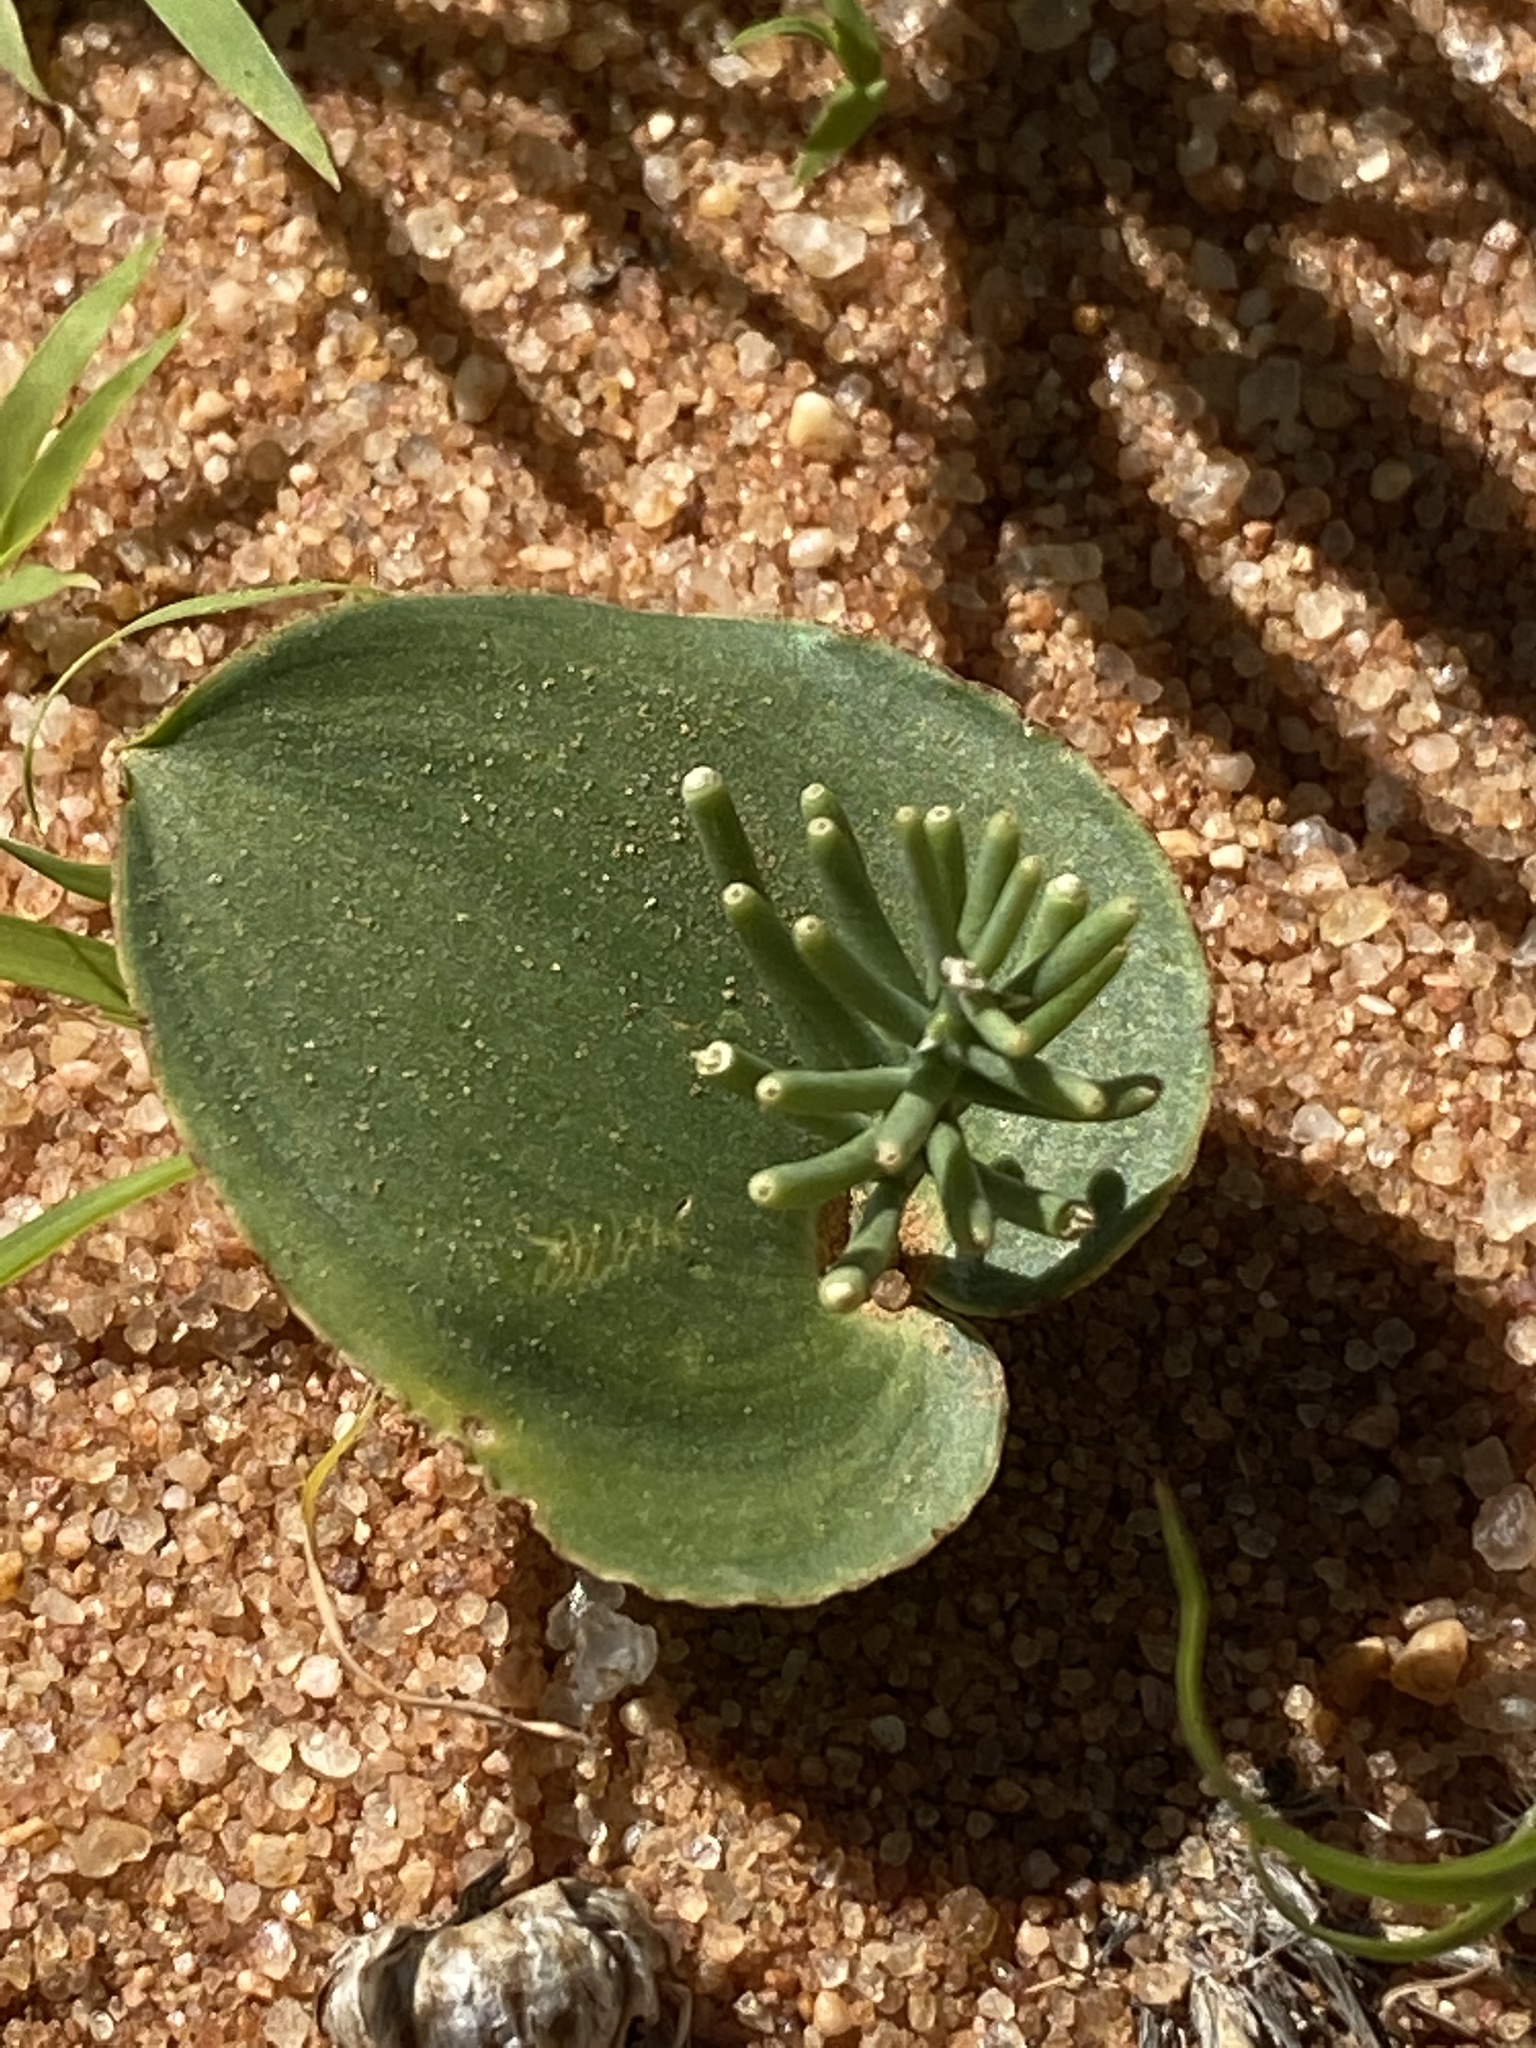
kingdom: Plantae
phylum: Tracheophyta
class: Liliopsida
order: Asparagales
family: Asparagaceae
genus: Eriospermum
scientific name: Eriospermum currorii
